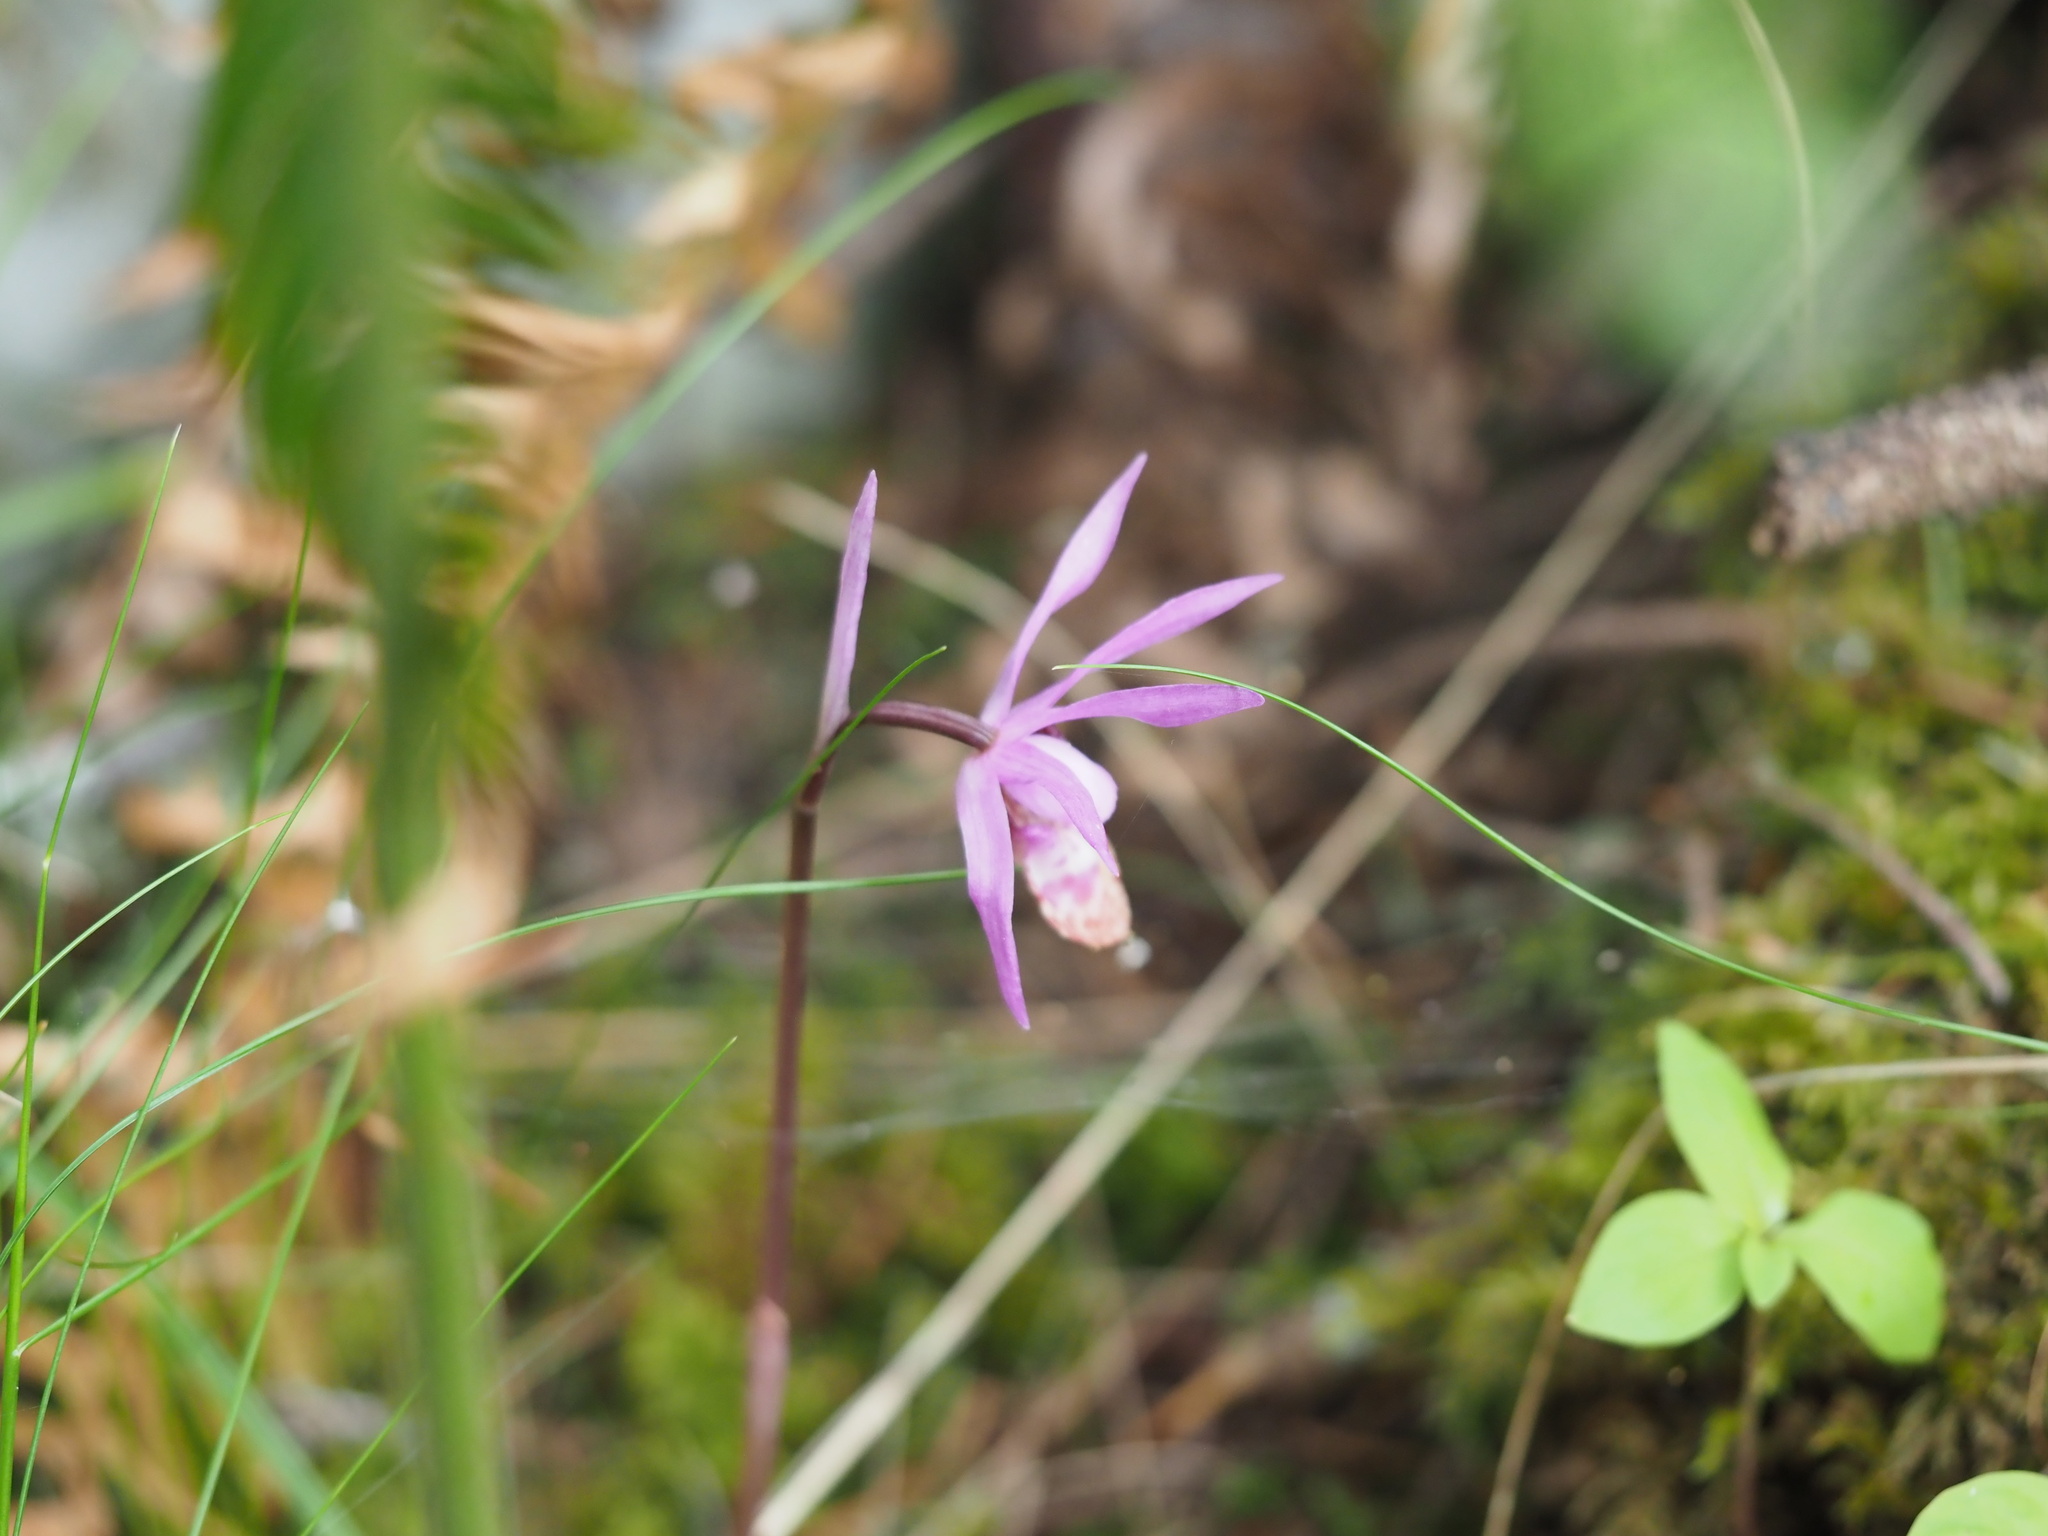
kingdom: Plantae
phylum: Tracheophyta
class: Liliopsida
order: Asparagales
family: Orchidaceae
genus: Calypso
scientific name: Calypso bulbosa
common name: Calypso
